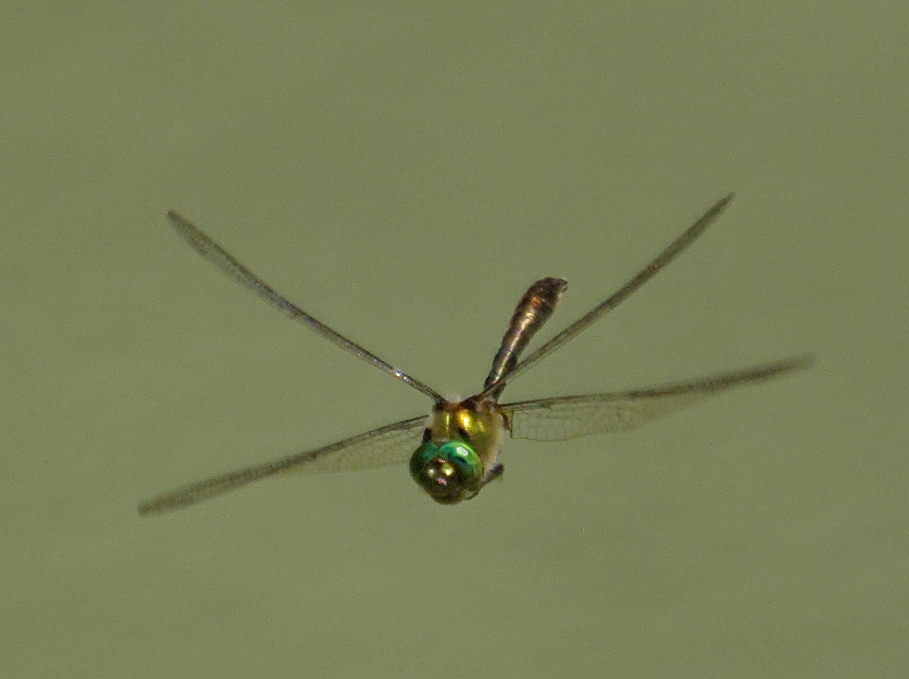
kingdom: Animalia
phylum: Arthropoda
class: Insecta
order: Odonata
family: Corduliidae
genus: Cordulia
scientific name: Cordulia aenea
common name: Downy emerald
